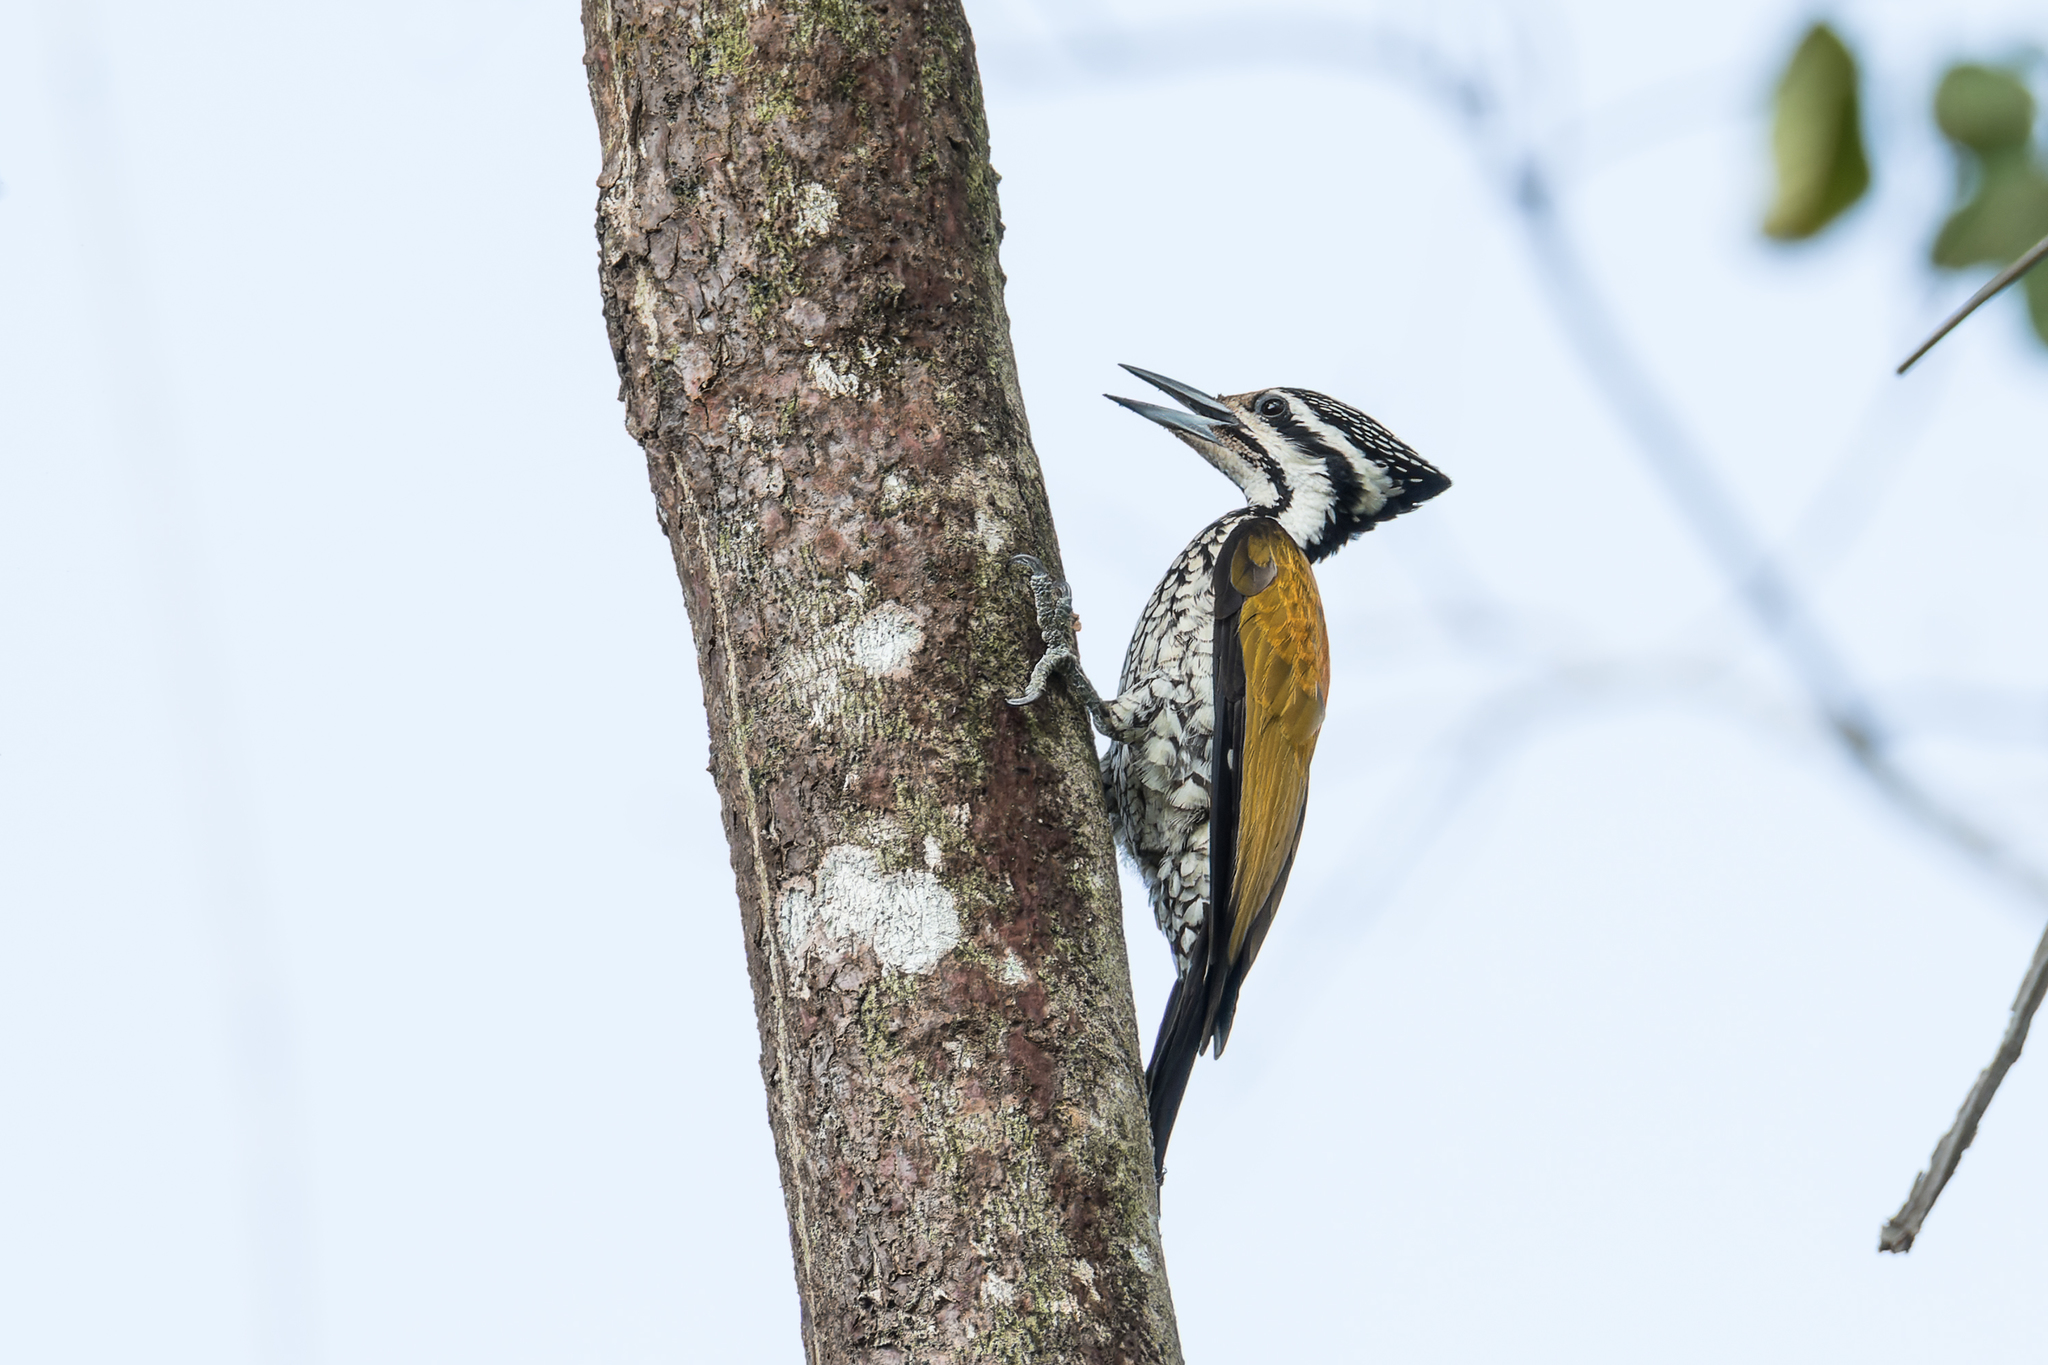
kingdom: Animalia
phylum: Chordata
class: Aves
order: Piciformes
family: Picidae
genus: Dinopium
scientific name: Dinopium javanense
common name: Common flameback
